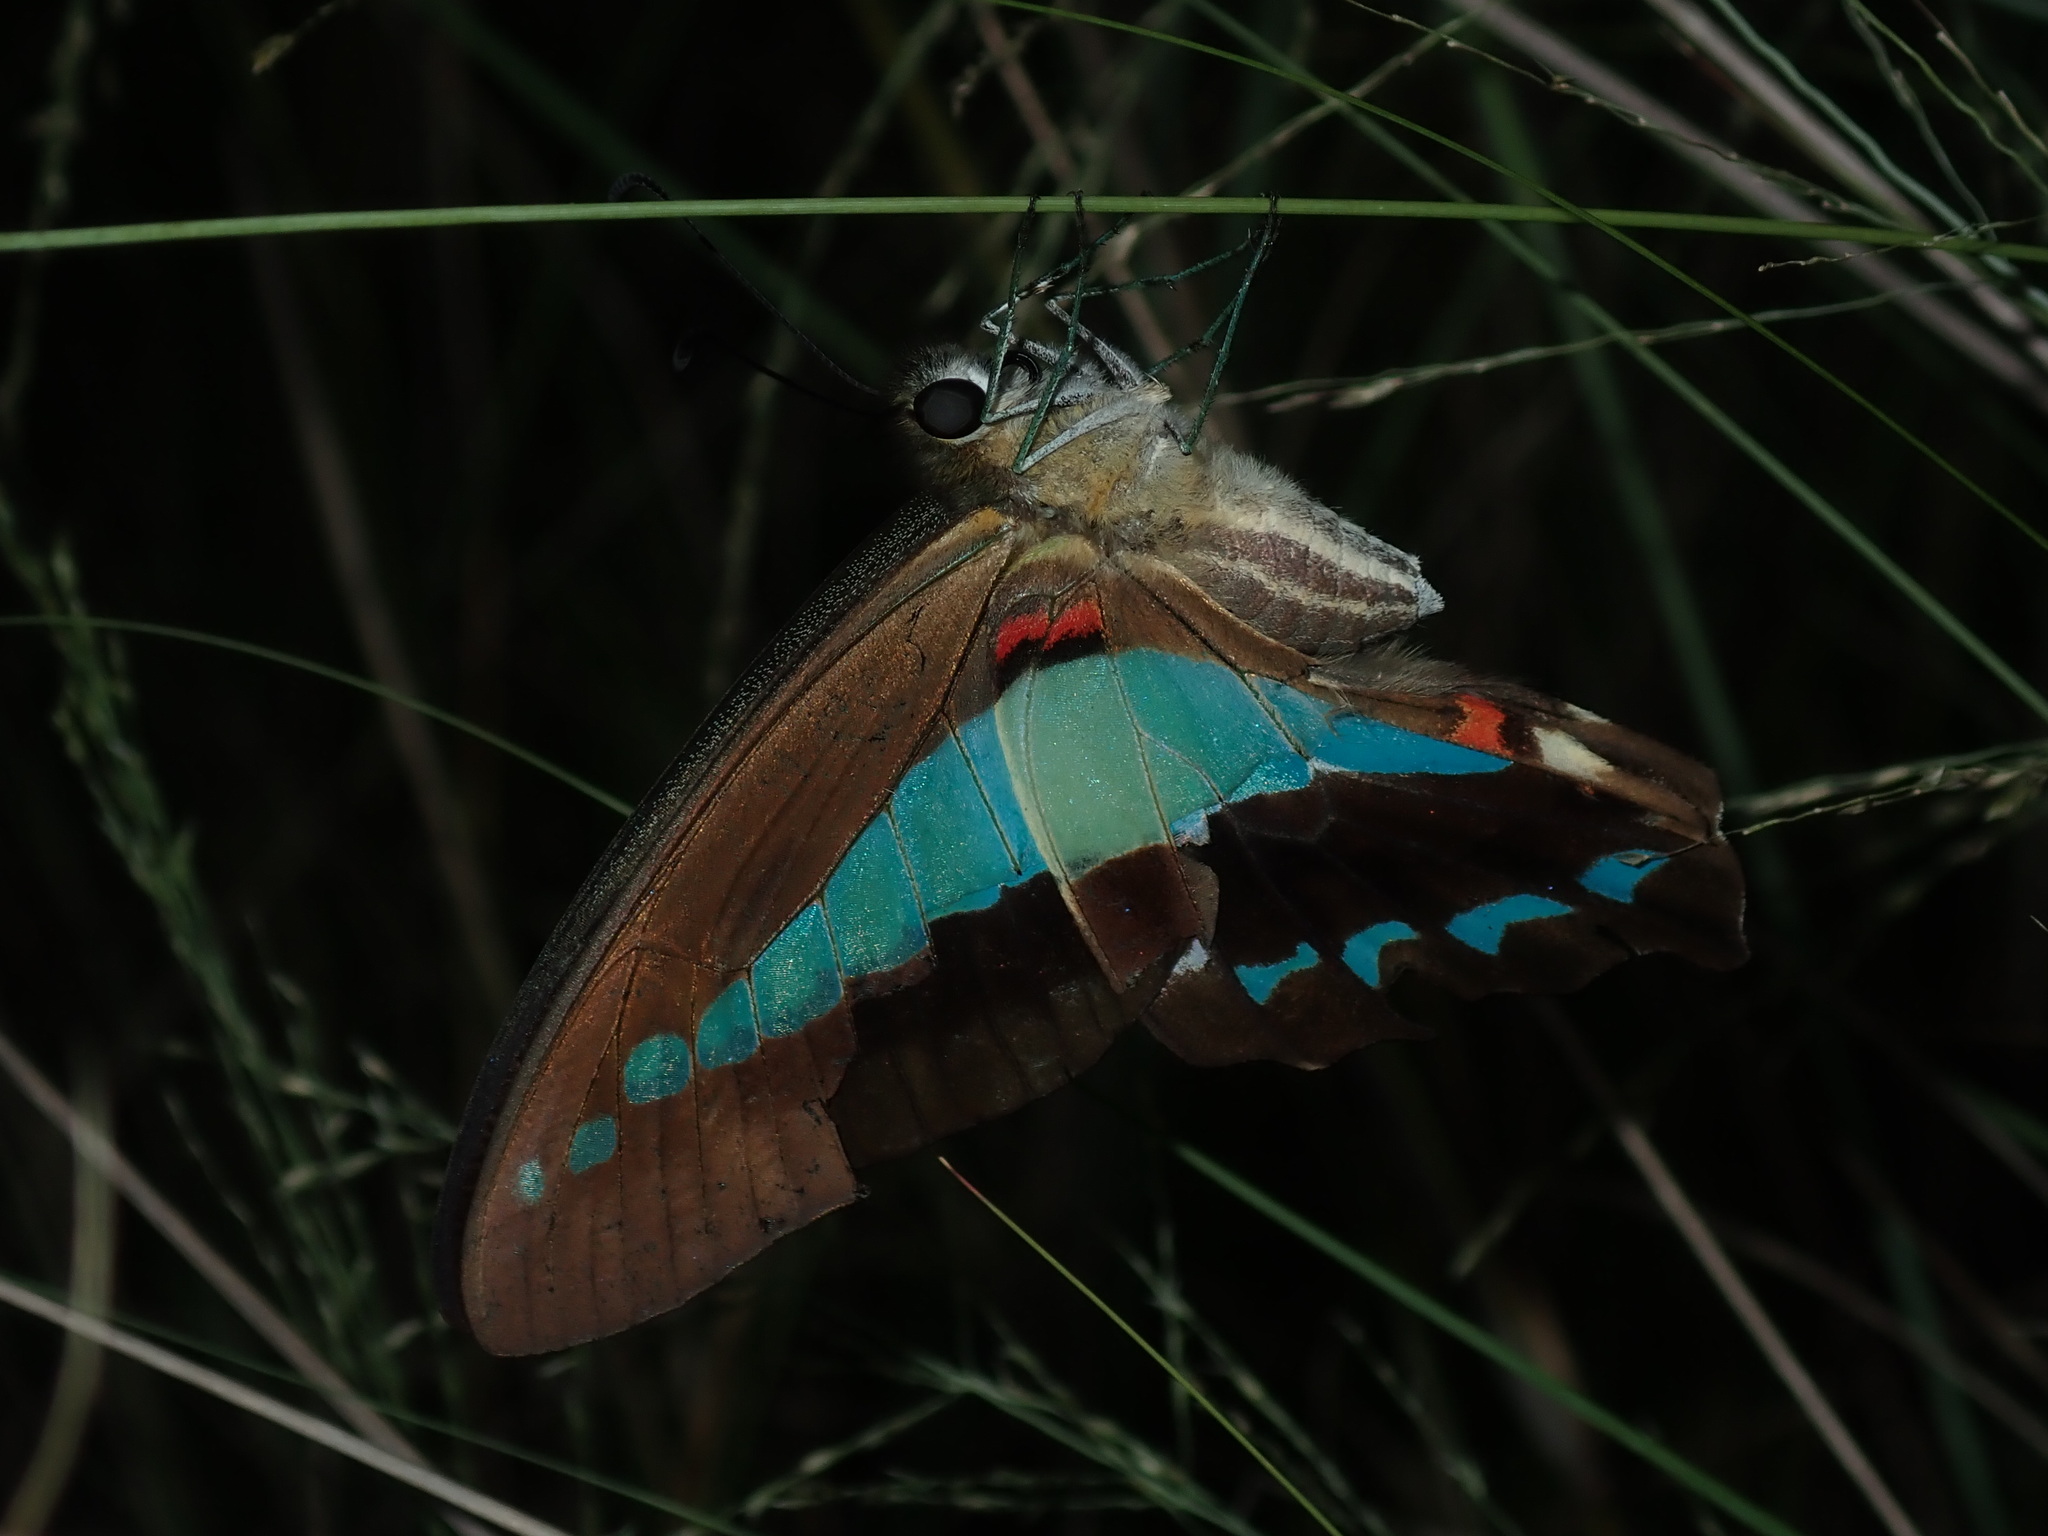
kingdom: Animalia
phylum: Arthropoda
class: Insecta
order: Lepidoptera
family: Papilionidae
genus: Graphium
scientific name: Graphium
